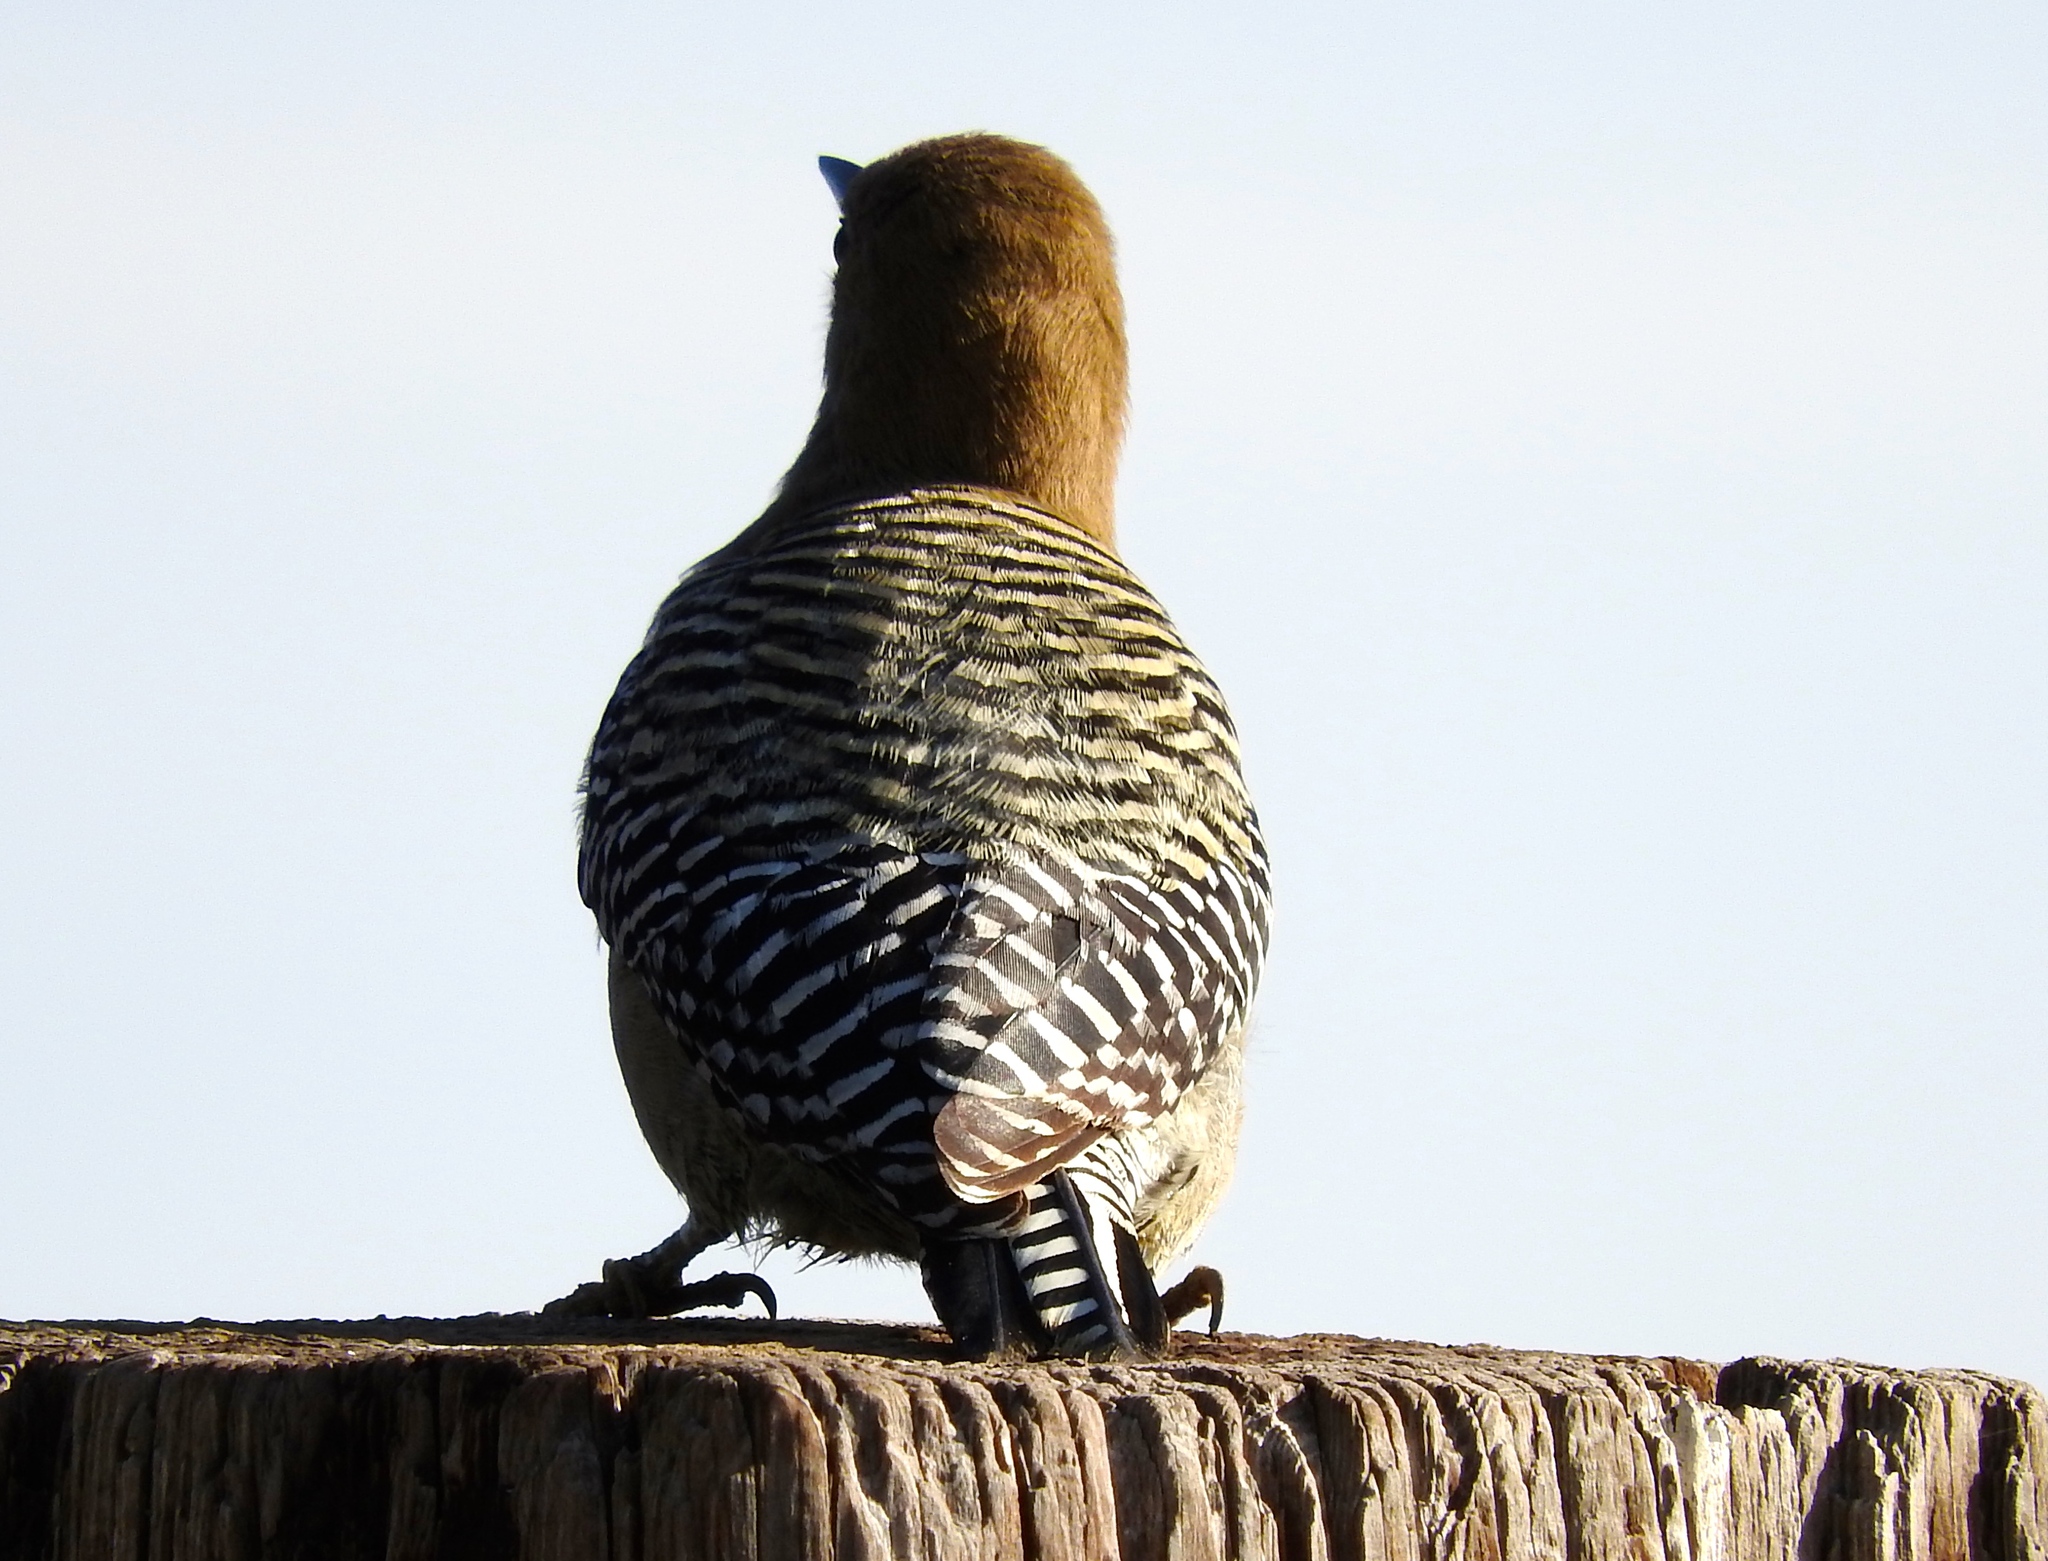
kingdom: Animalia
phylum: Chordata
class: Aves
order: Piciformes
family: Picidae
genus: Melanerpes
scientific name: Melanerpes uropygialis
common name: Gila woodpecker
